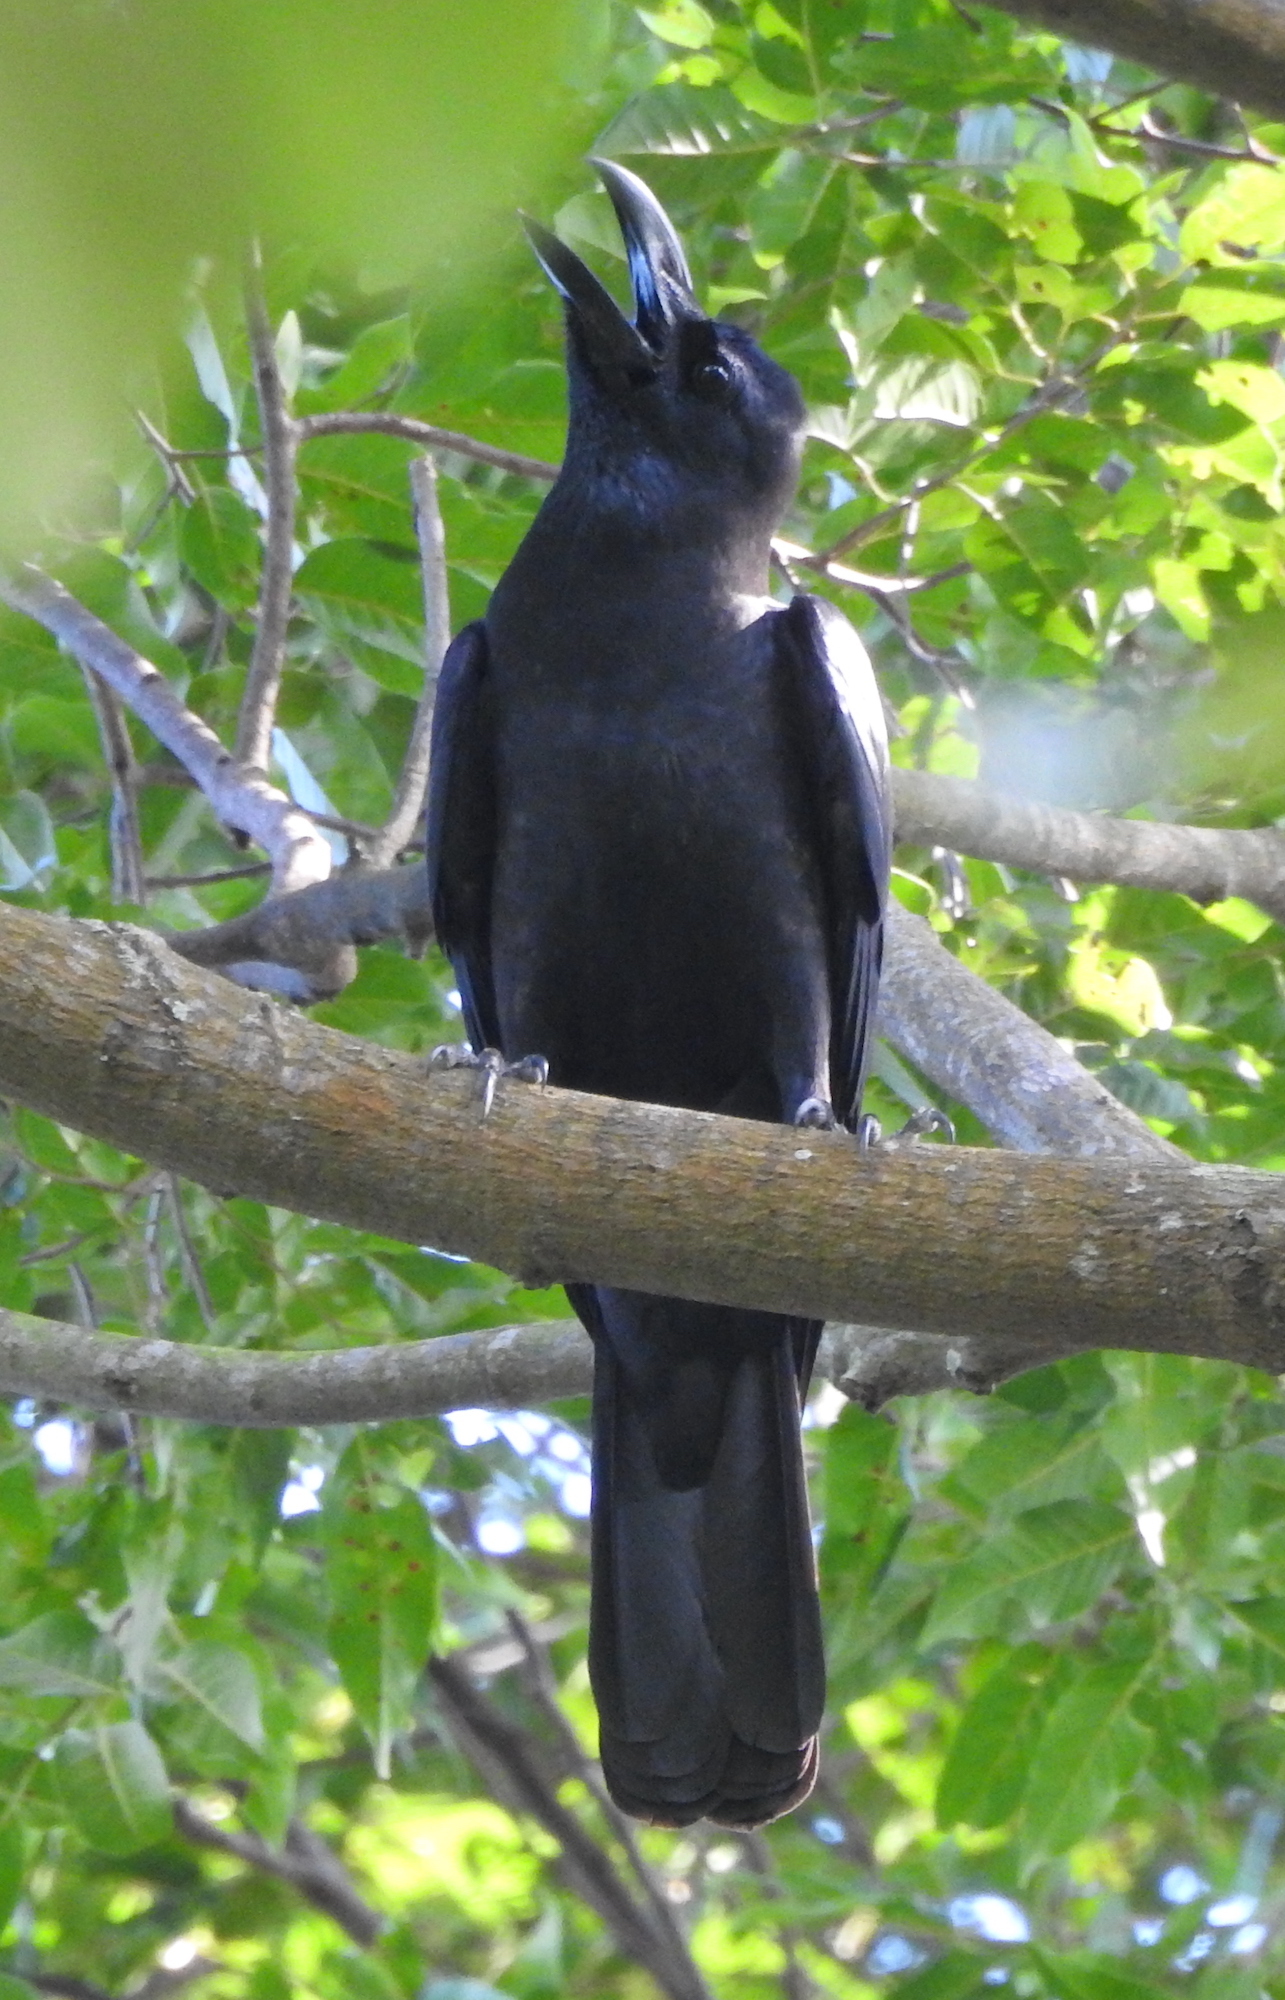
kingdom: Animalia
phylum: Chordata
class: Aves
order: Passeriformes
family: Corvidae
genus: Corvus
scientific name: Corvus macrorhynchos
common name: Large-billed crow
